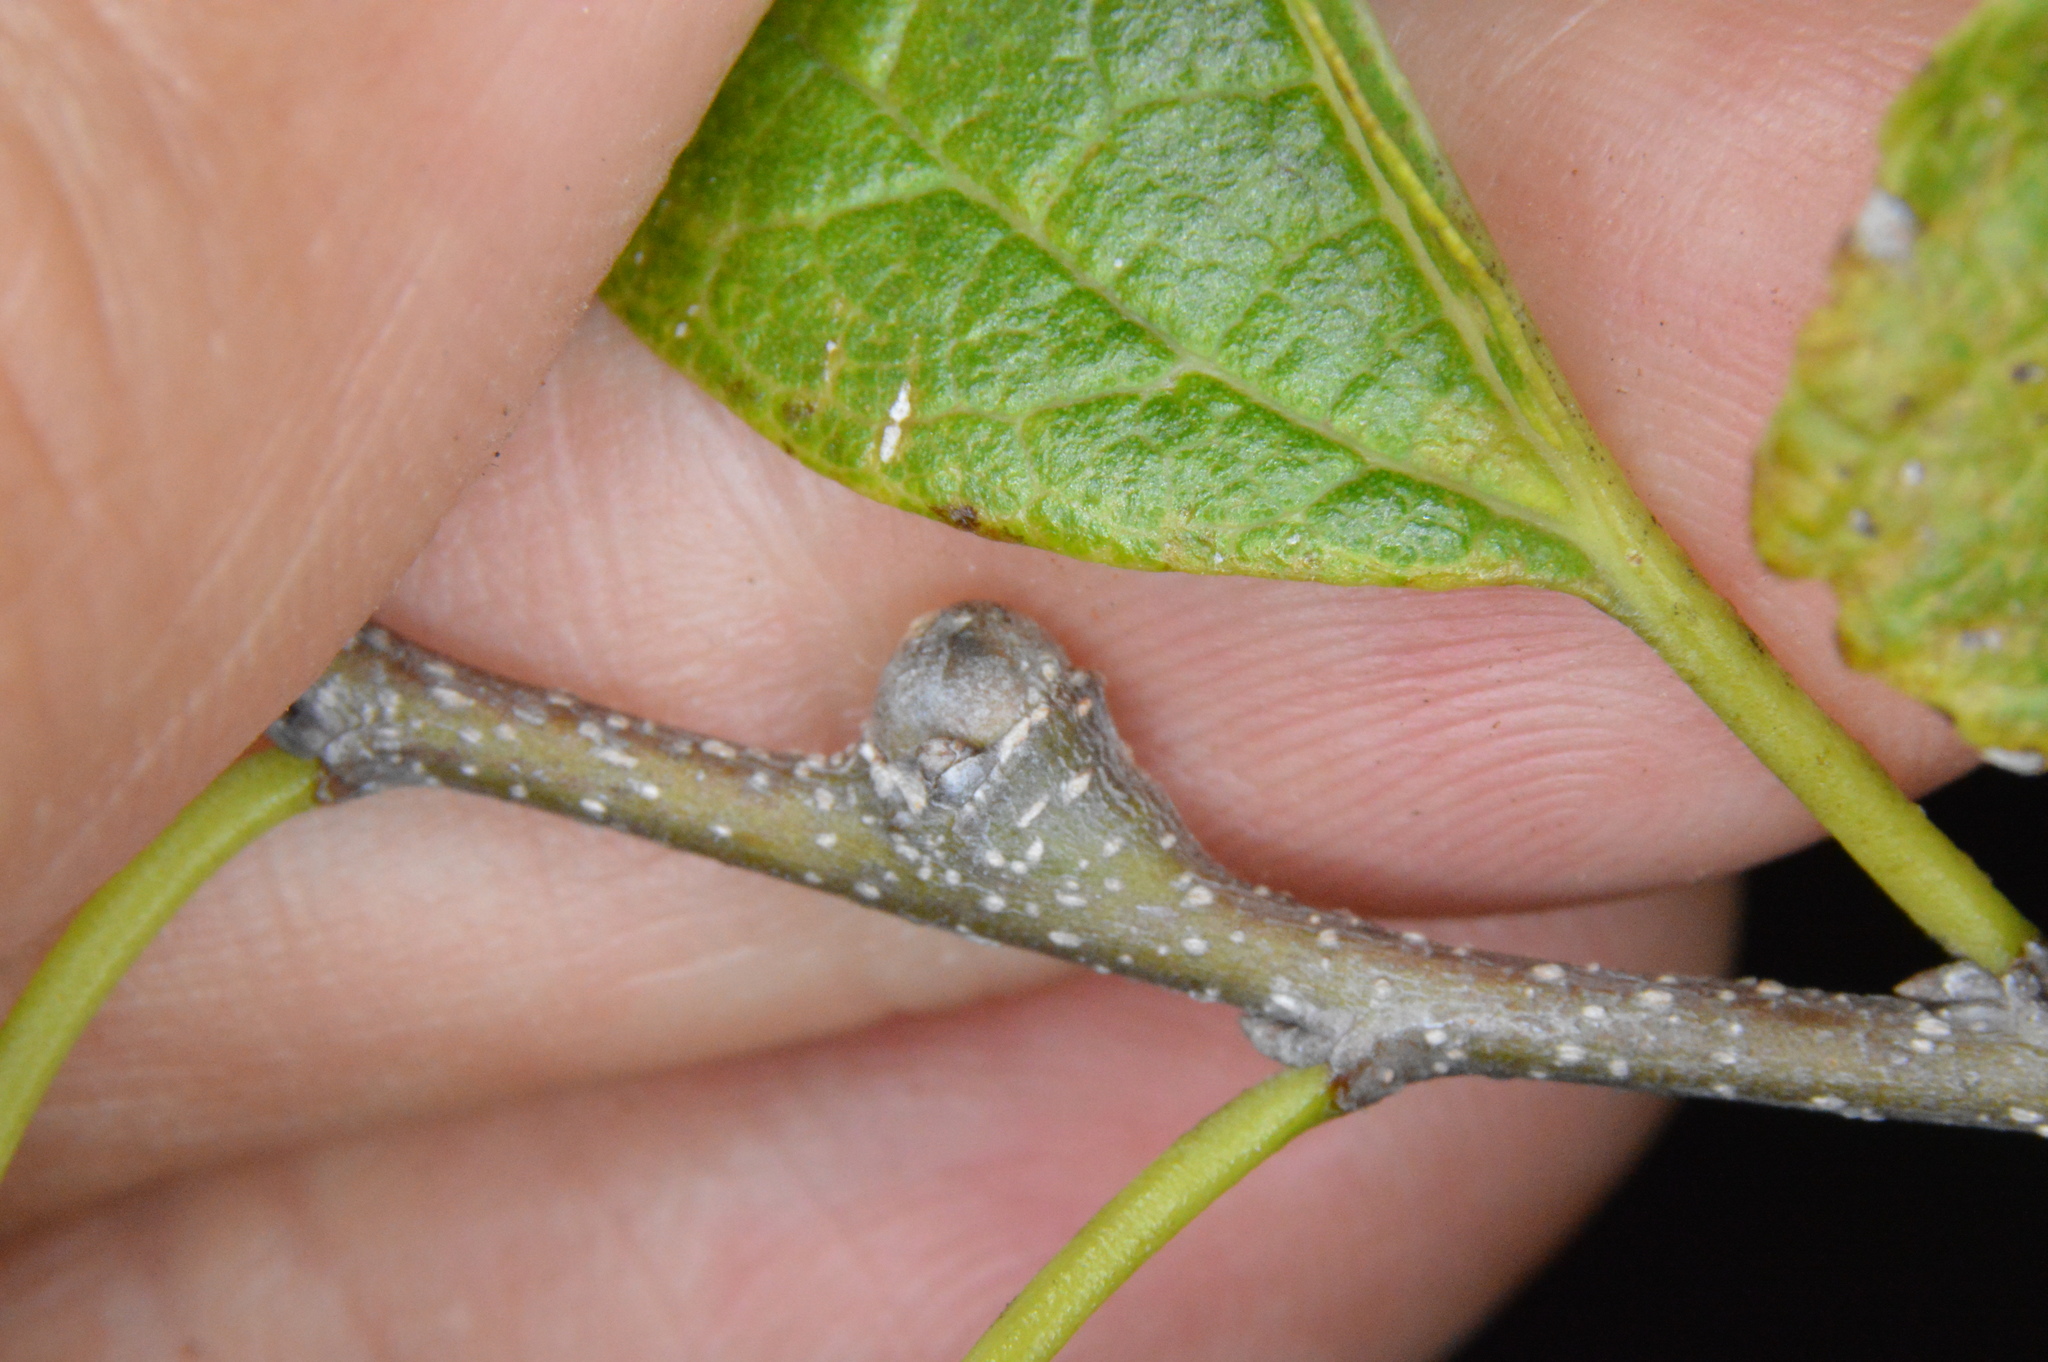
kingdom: Animalia
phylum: Arthropoda
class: Insecta
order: Hemiptera
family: Aphalaridae
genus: Pachypsylla
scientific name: Pachypsylla celtidisgemma
